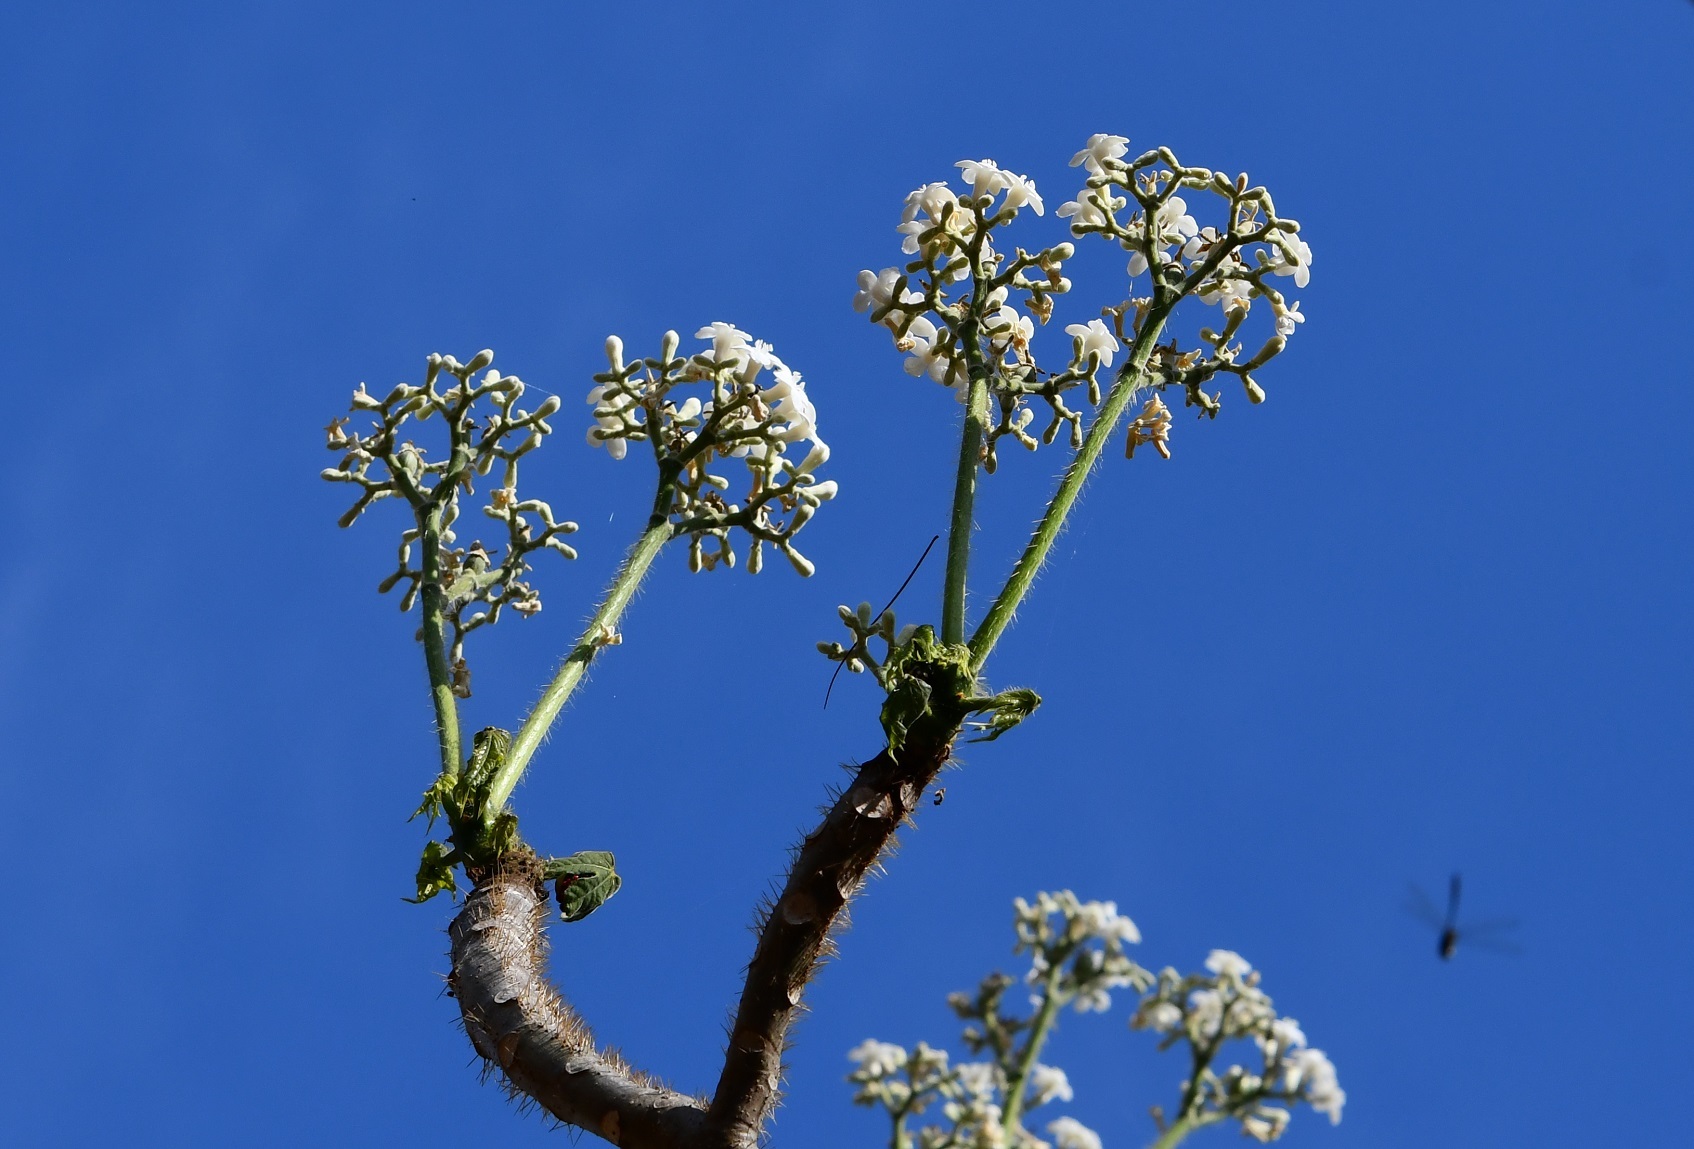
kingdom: Plantae
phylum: Tracheophyta
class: Magnoliopsida
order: Malpighiales
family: Euphorbiaceae
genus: Cnidoscolus
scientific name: Cnidoscolus aconitifolius
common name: Cabbage-star
